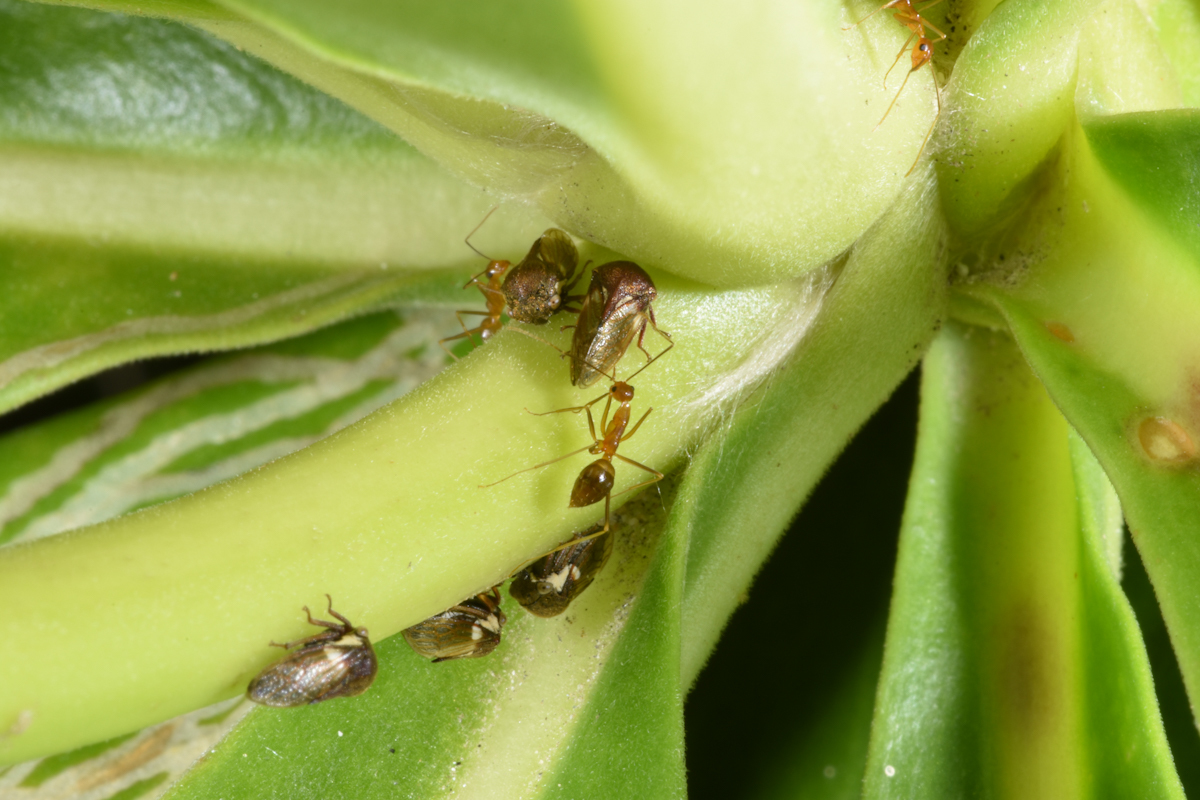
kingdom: Animalia
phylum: Arthropoda
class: Insecta
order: Hymenoptera
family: Formicidae
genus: Anoplolepis
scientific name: Anoplolepis gracilipes
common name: Ant
